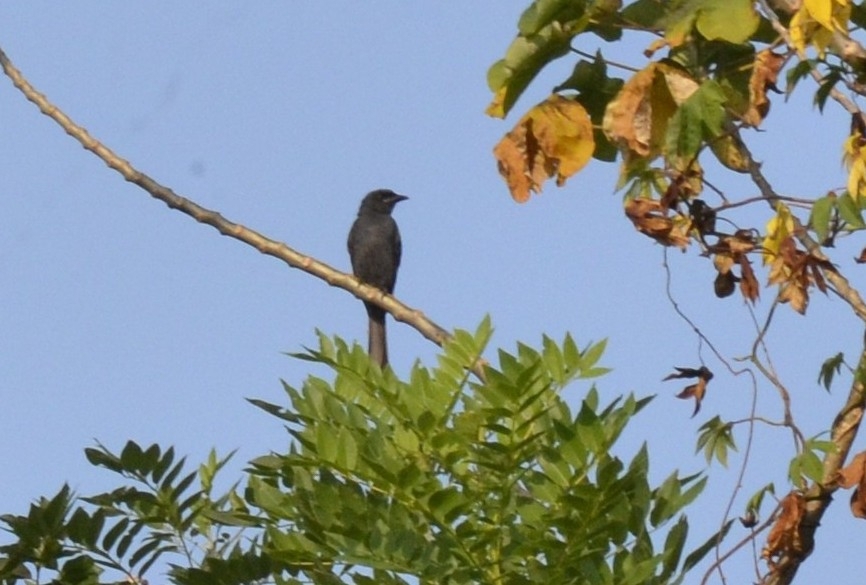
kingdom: Animalia
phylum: Chordata
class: Aves
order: Passeriformes
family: Dicruridae
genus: Dicrurus
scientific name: Dicrurus leucophaeus
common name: Ashy drongo
